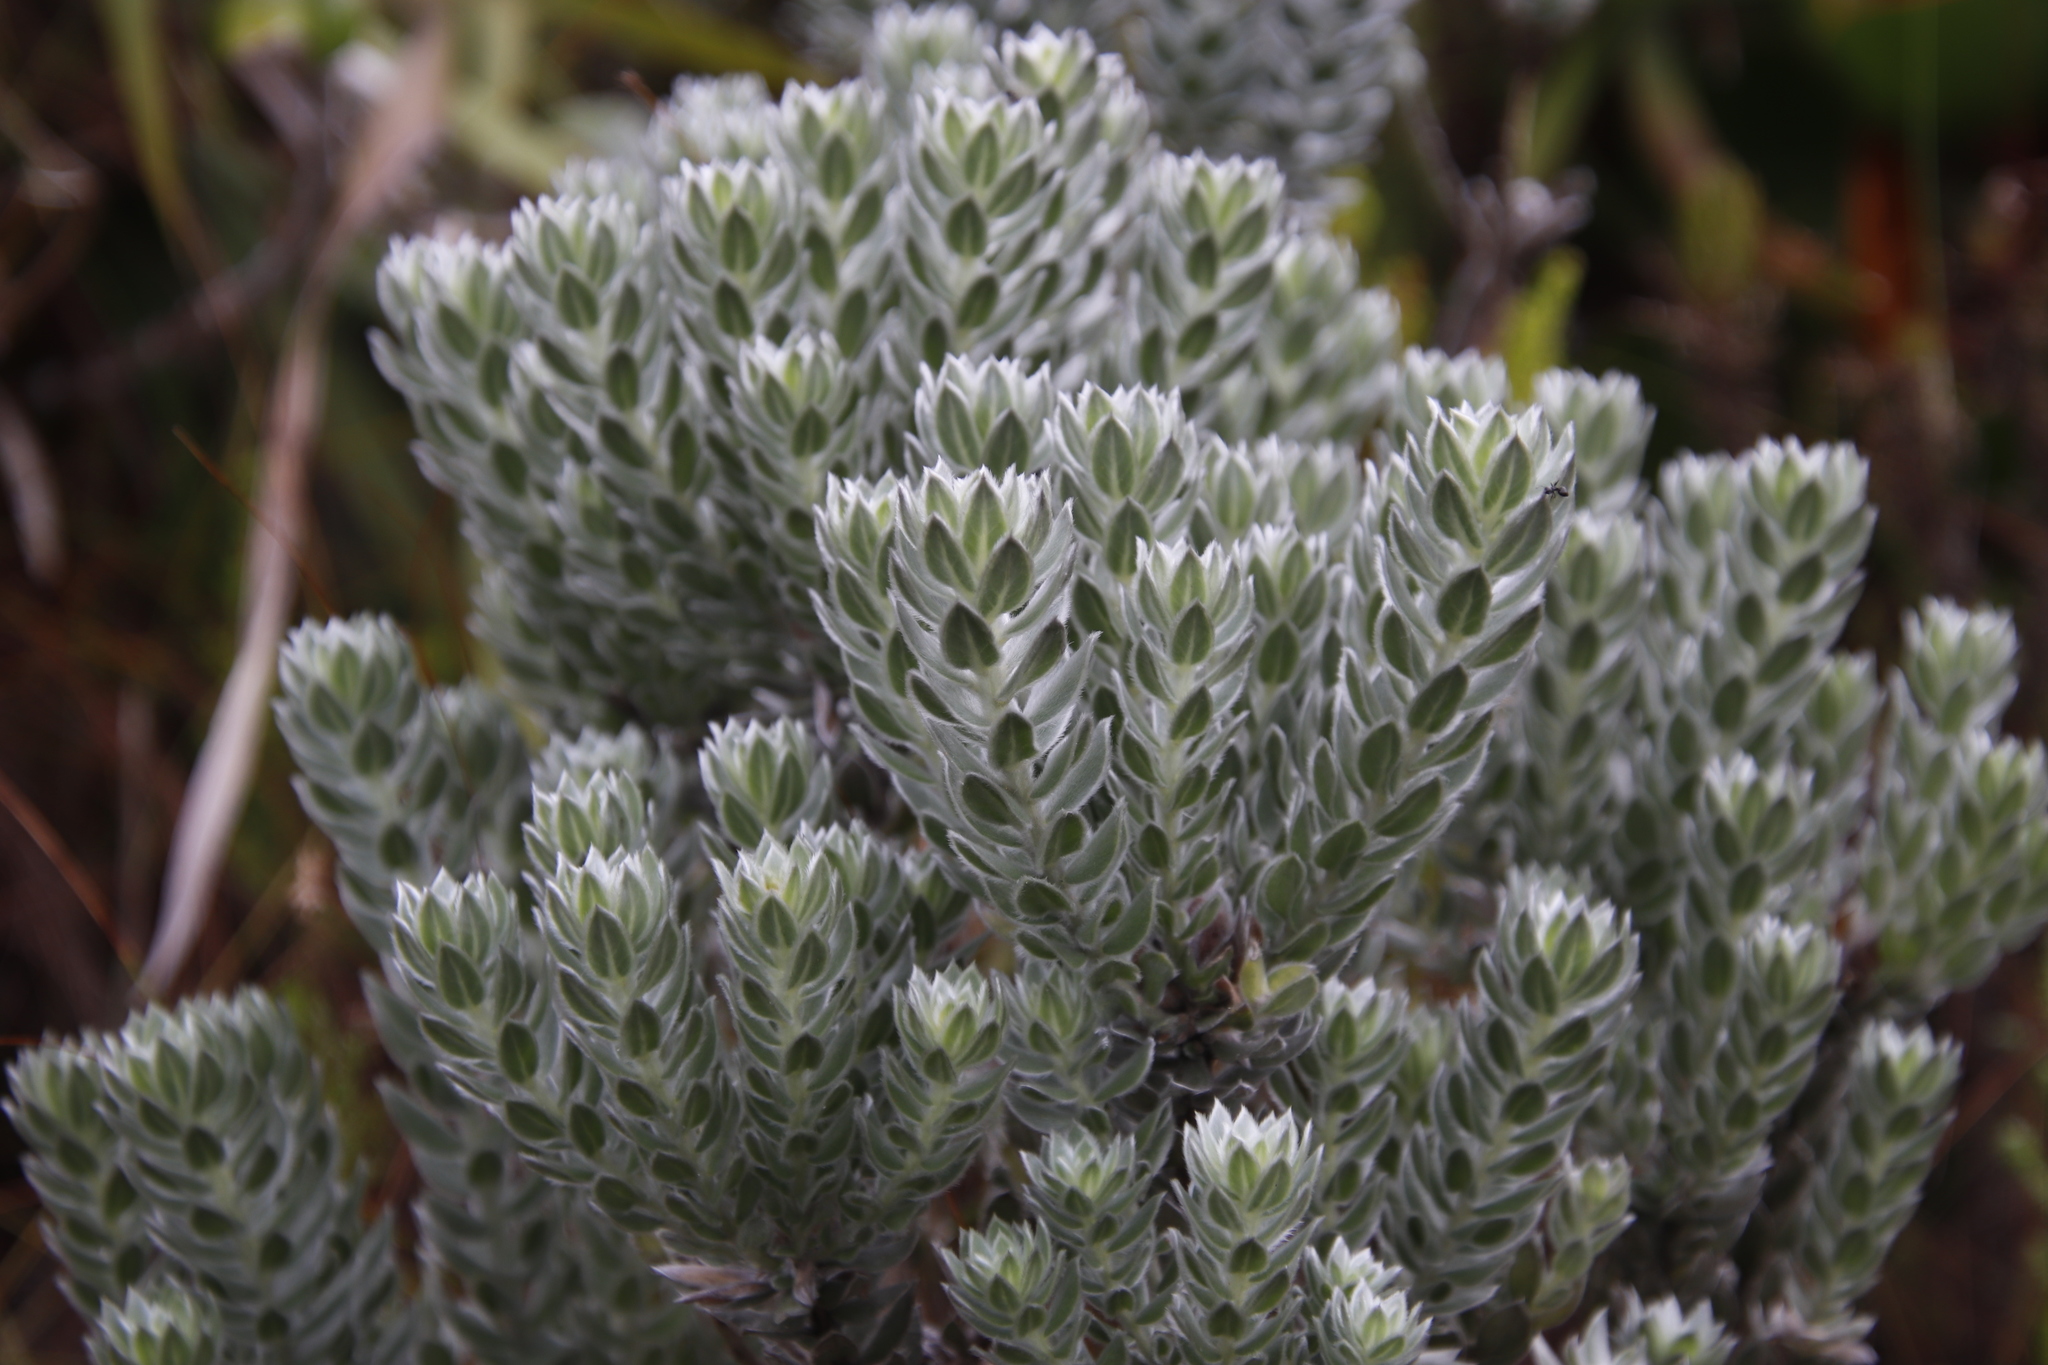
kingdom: Plantae
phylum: Tracheophyta
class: Magnoliopsida
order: Fabales
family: Fabaceae
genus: Xiphotheca
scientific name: Xiphotheca fruticosa
